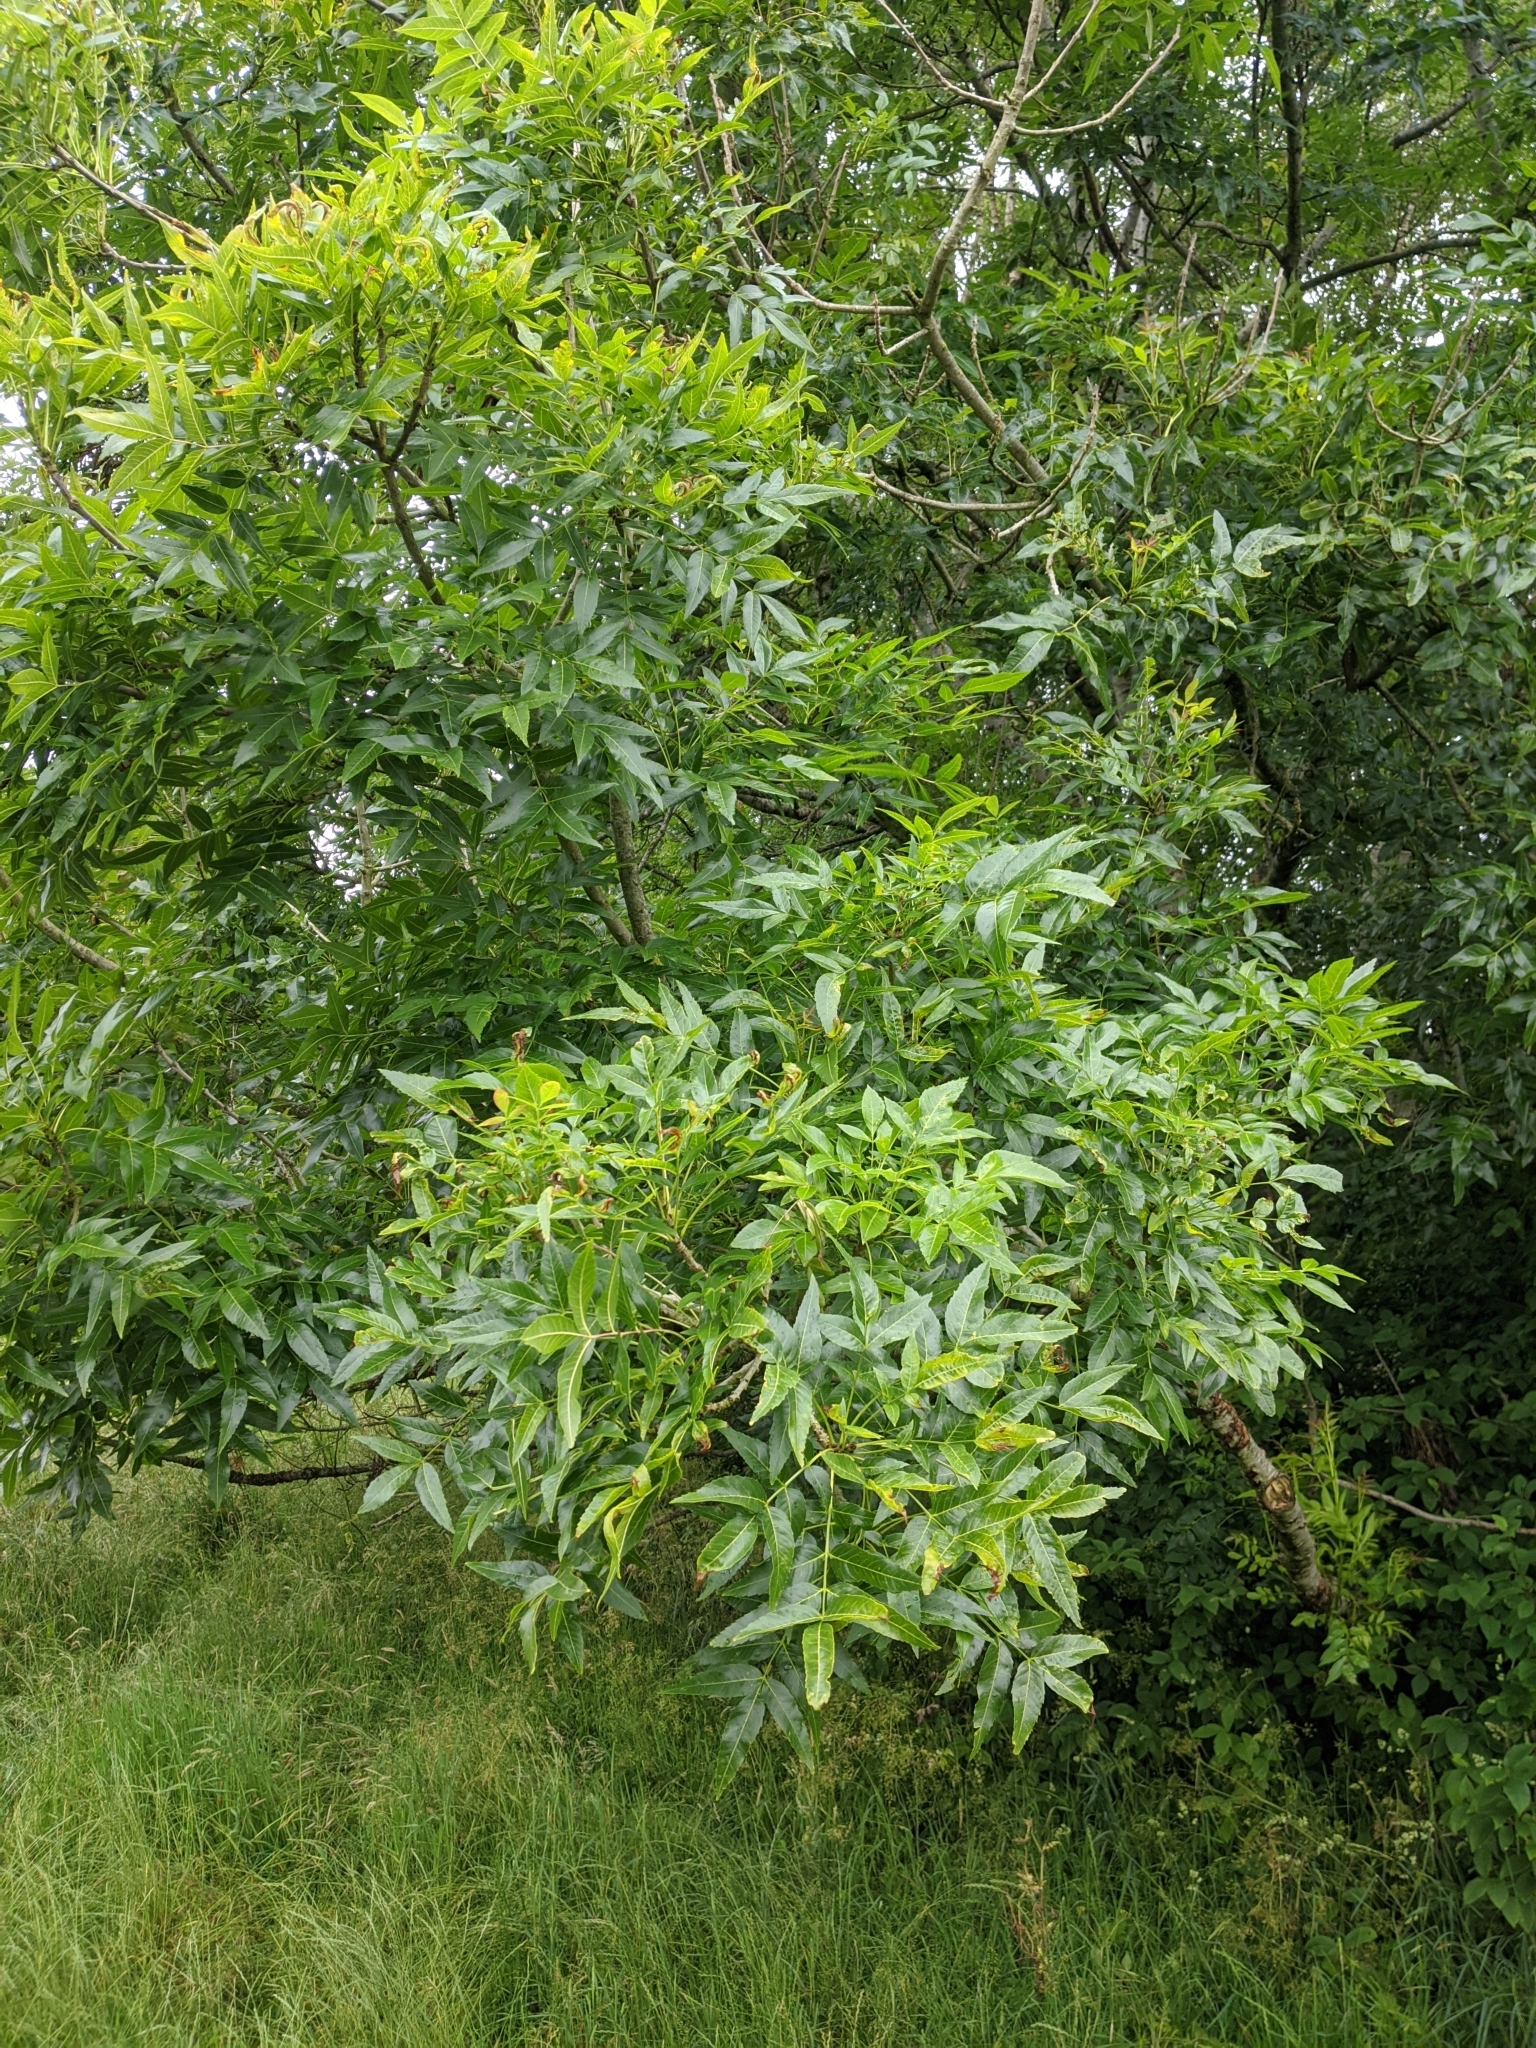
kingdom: Plantae
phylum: Tracheophyta
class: Magnoliopsida
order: Lamiales
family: Oleaceae
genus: Fraxinus
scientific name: Fraxinus excelsior
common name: European ash
